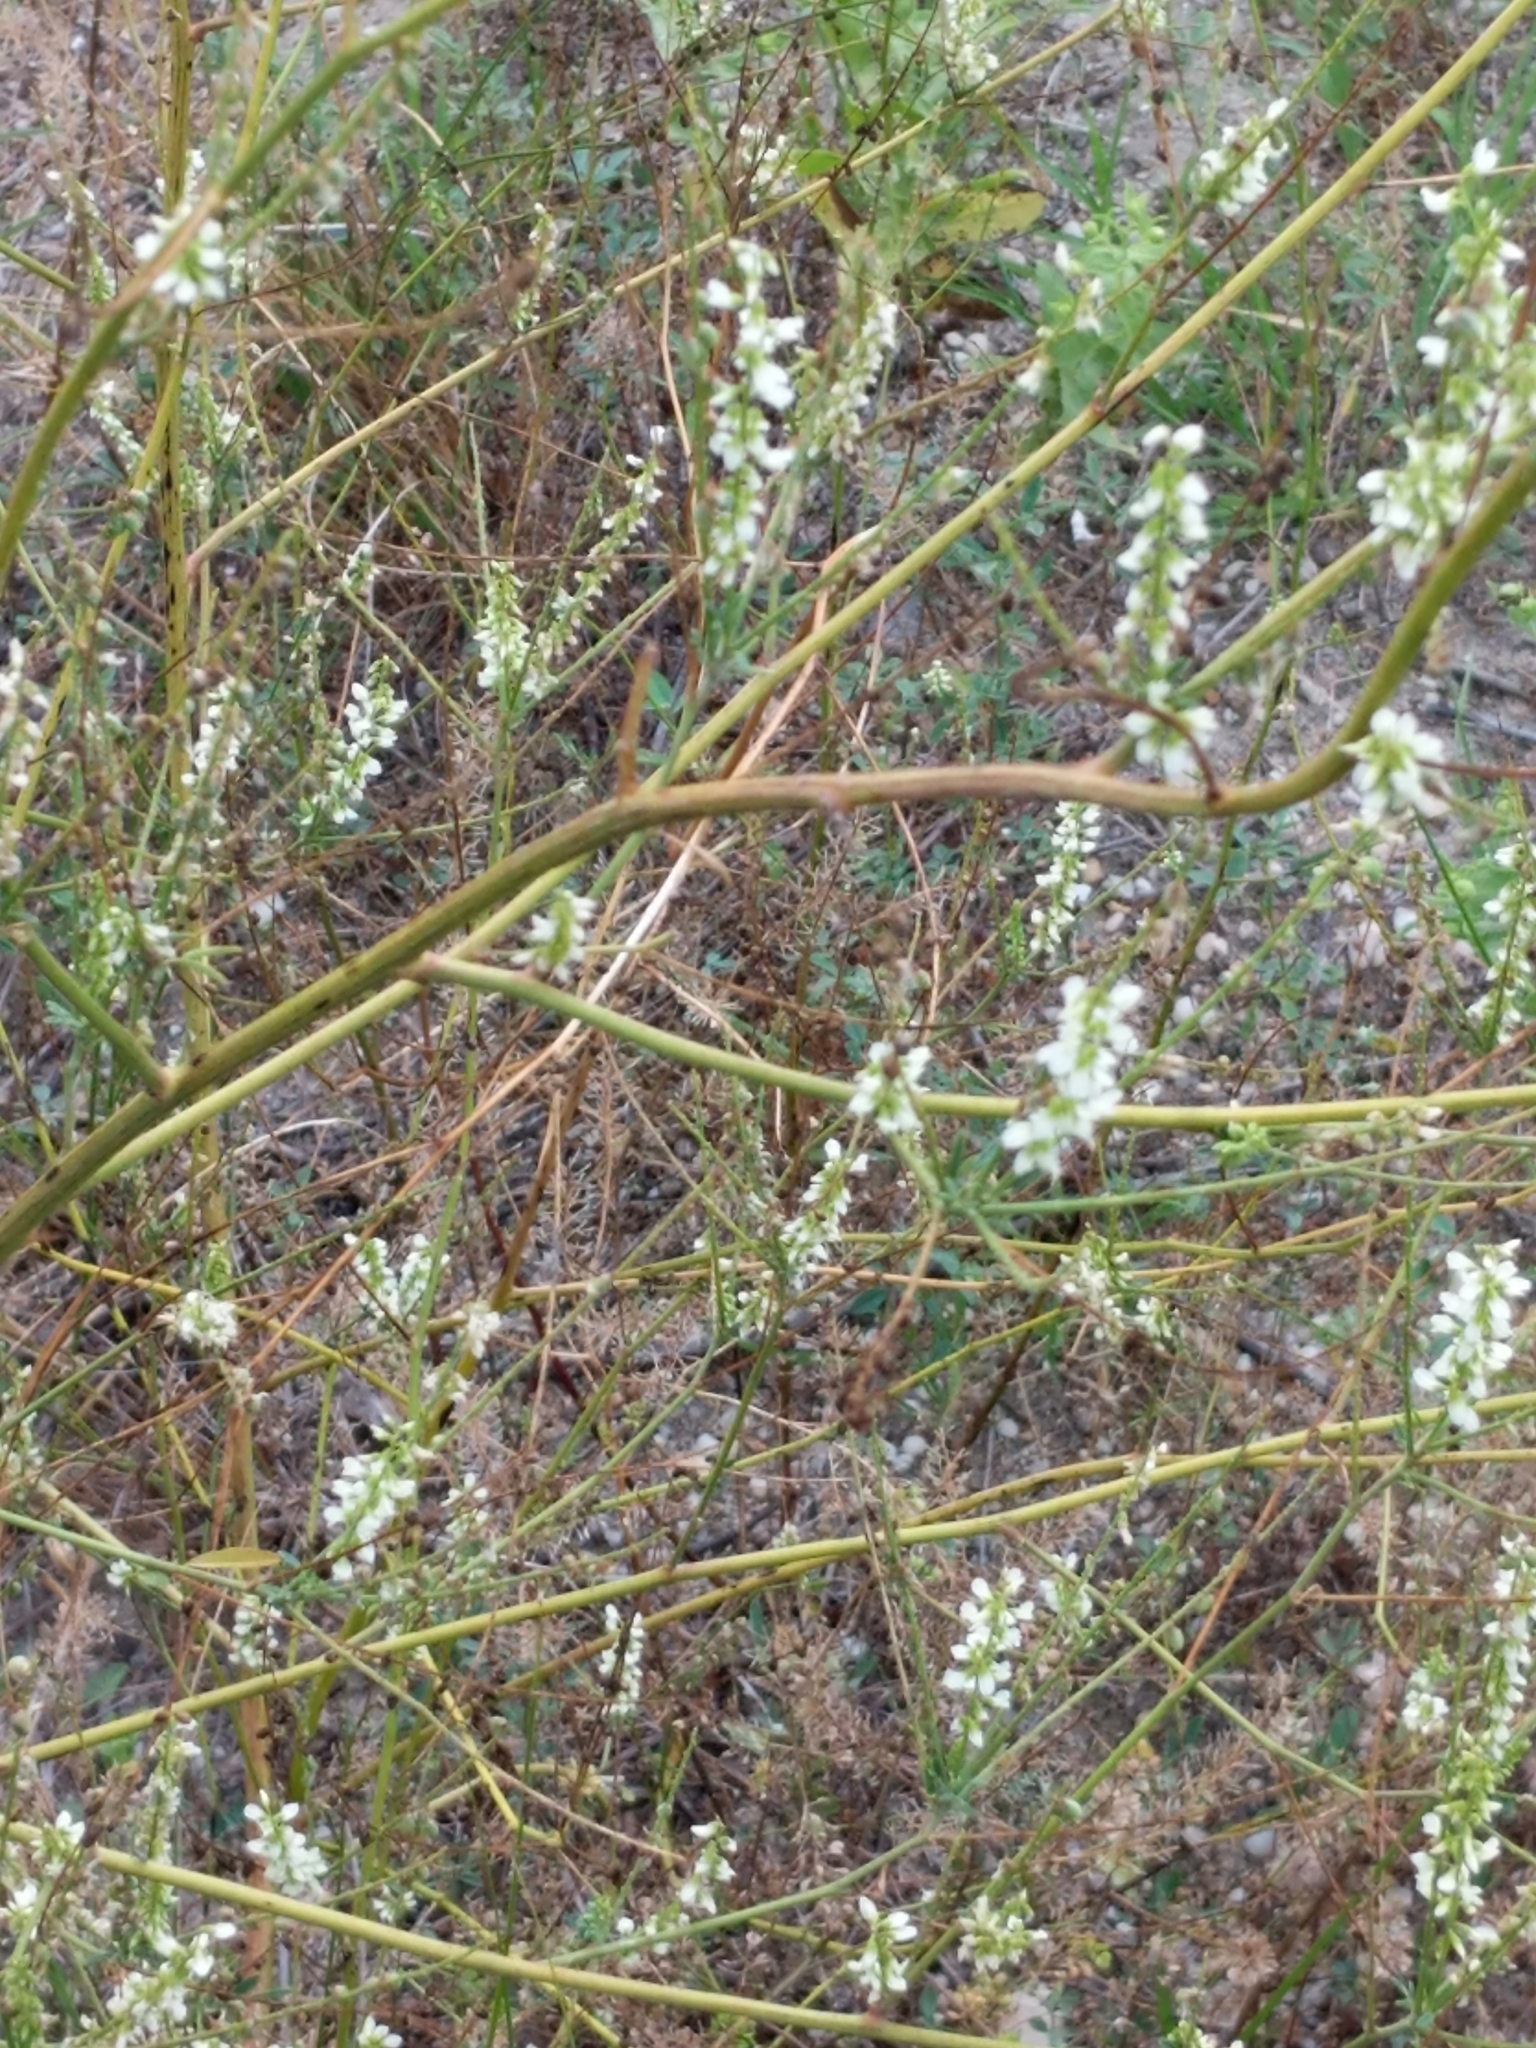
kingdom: Plantae
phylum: Tracheophyta
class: Magnoliopsida
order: Fabales
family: Fabaceae
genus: Melilotus
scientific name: Melilotus albus
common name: White melilot
